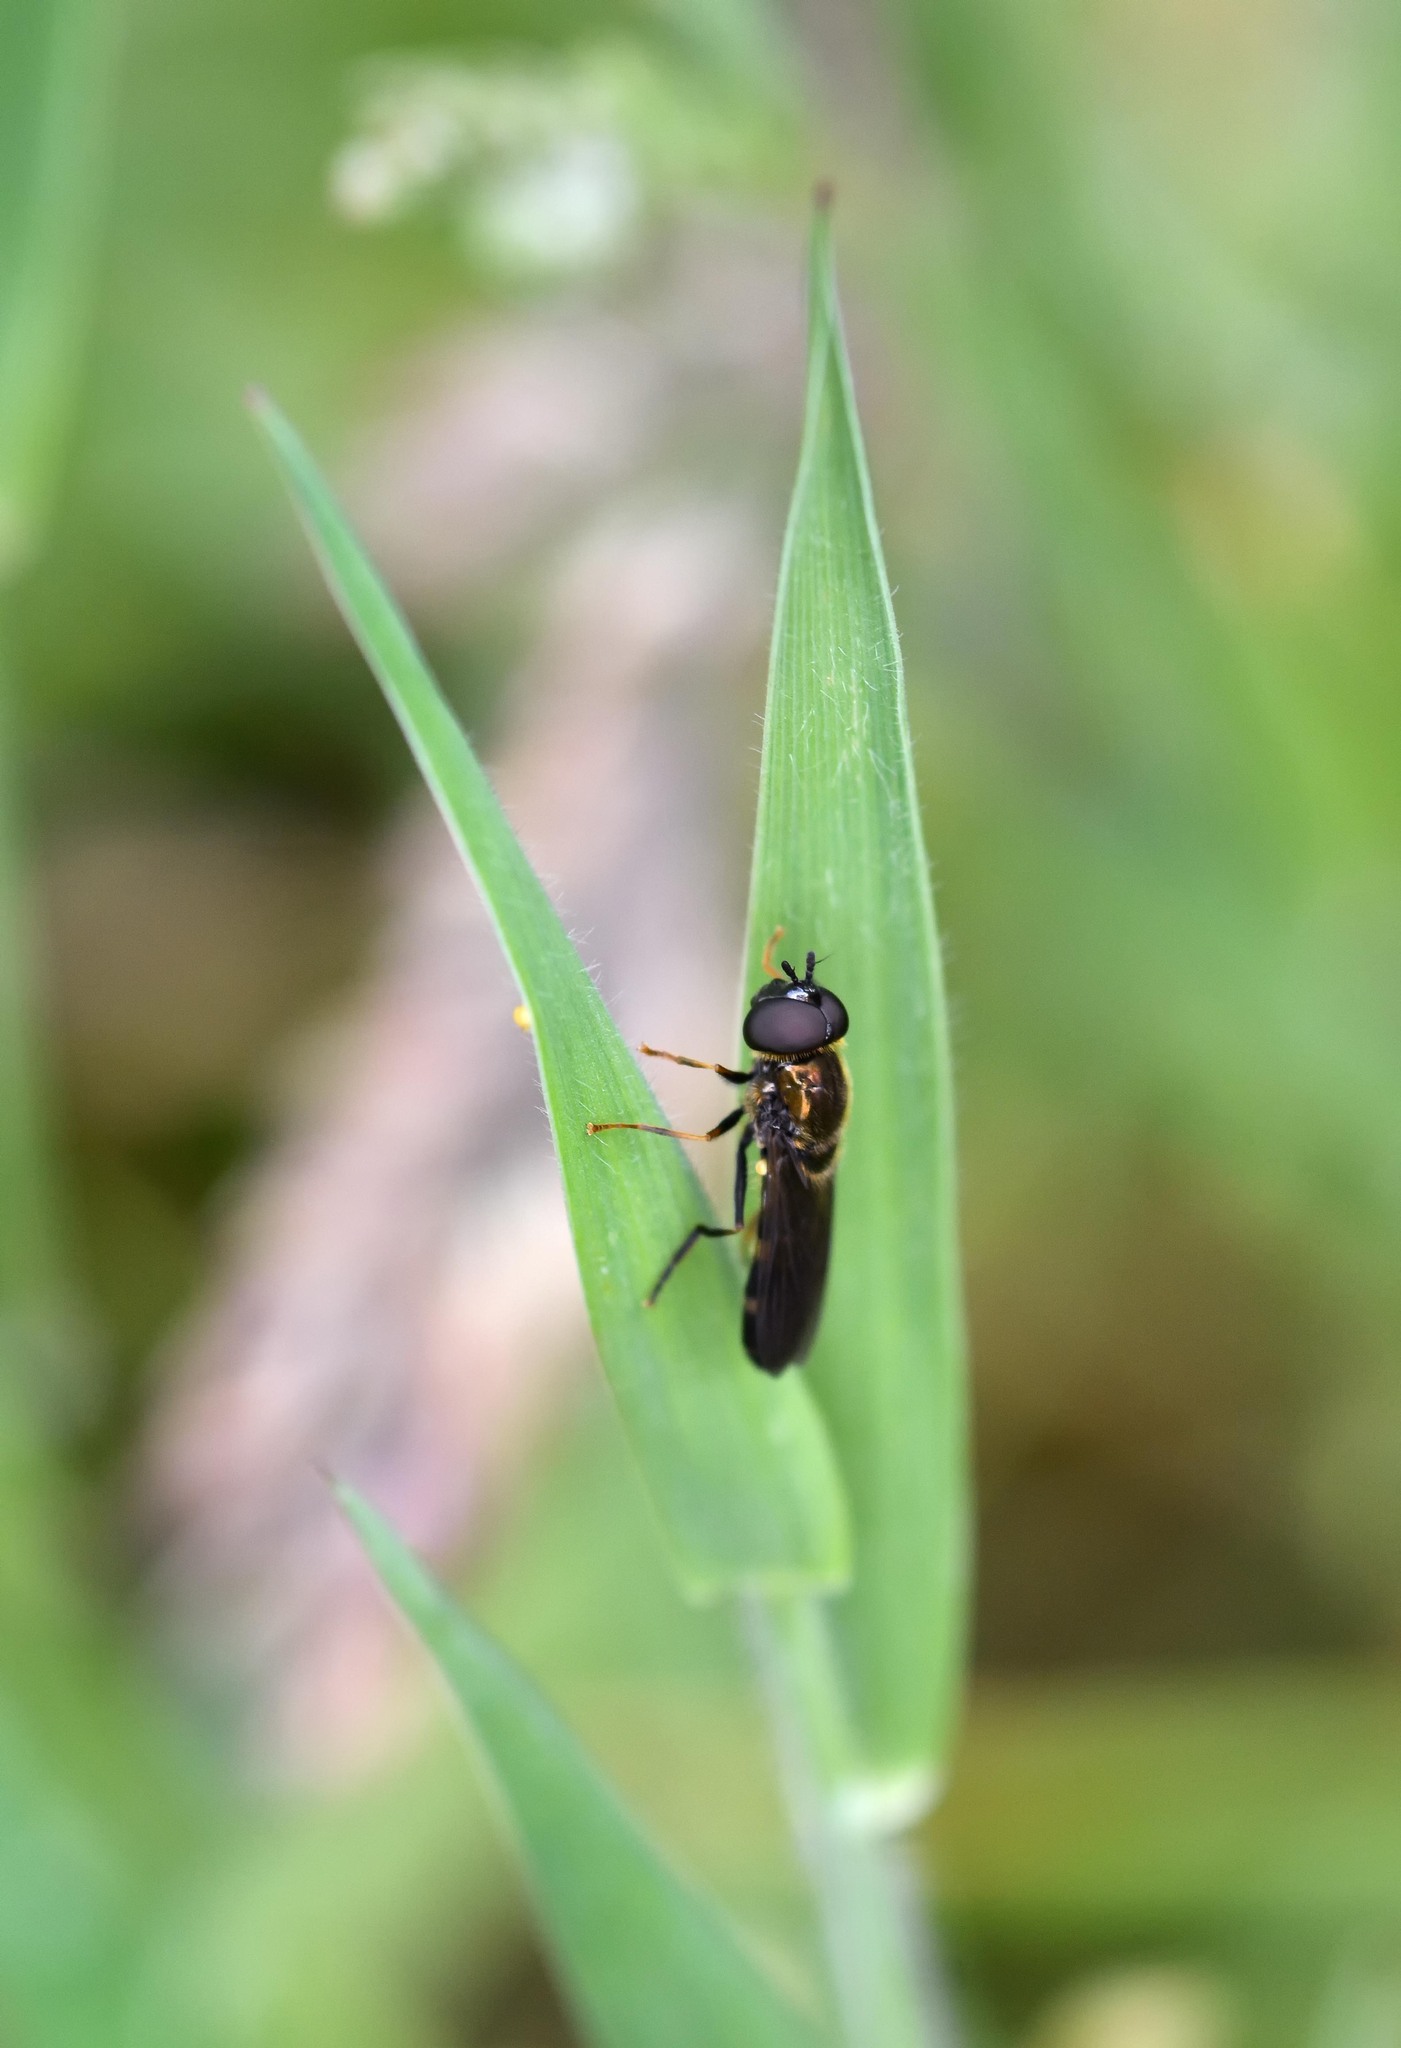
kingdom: Animalia
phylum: Arthropoda
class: Insecta
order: Diptera
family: Syrphidae
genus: Pyrophaena
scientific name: Pyrophaena rosarum
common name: Fourspot sedgesitter
